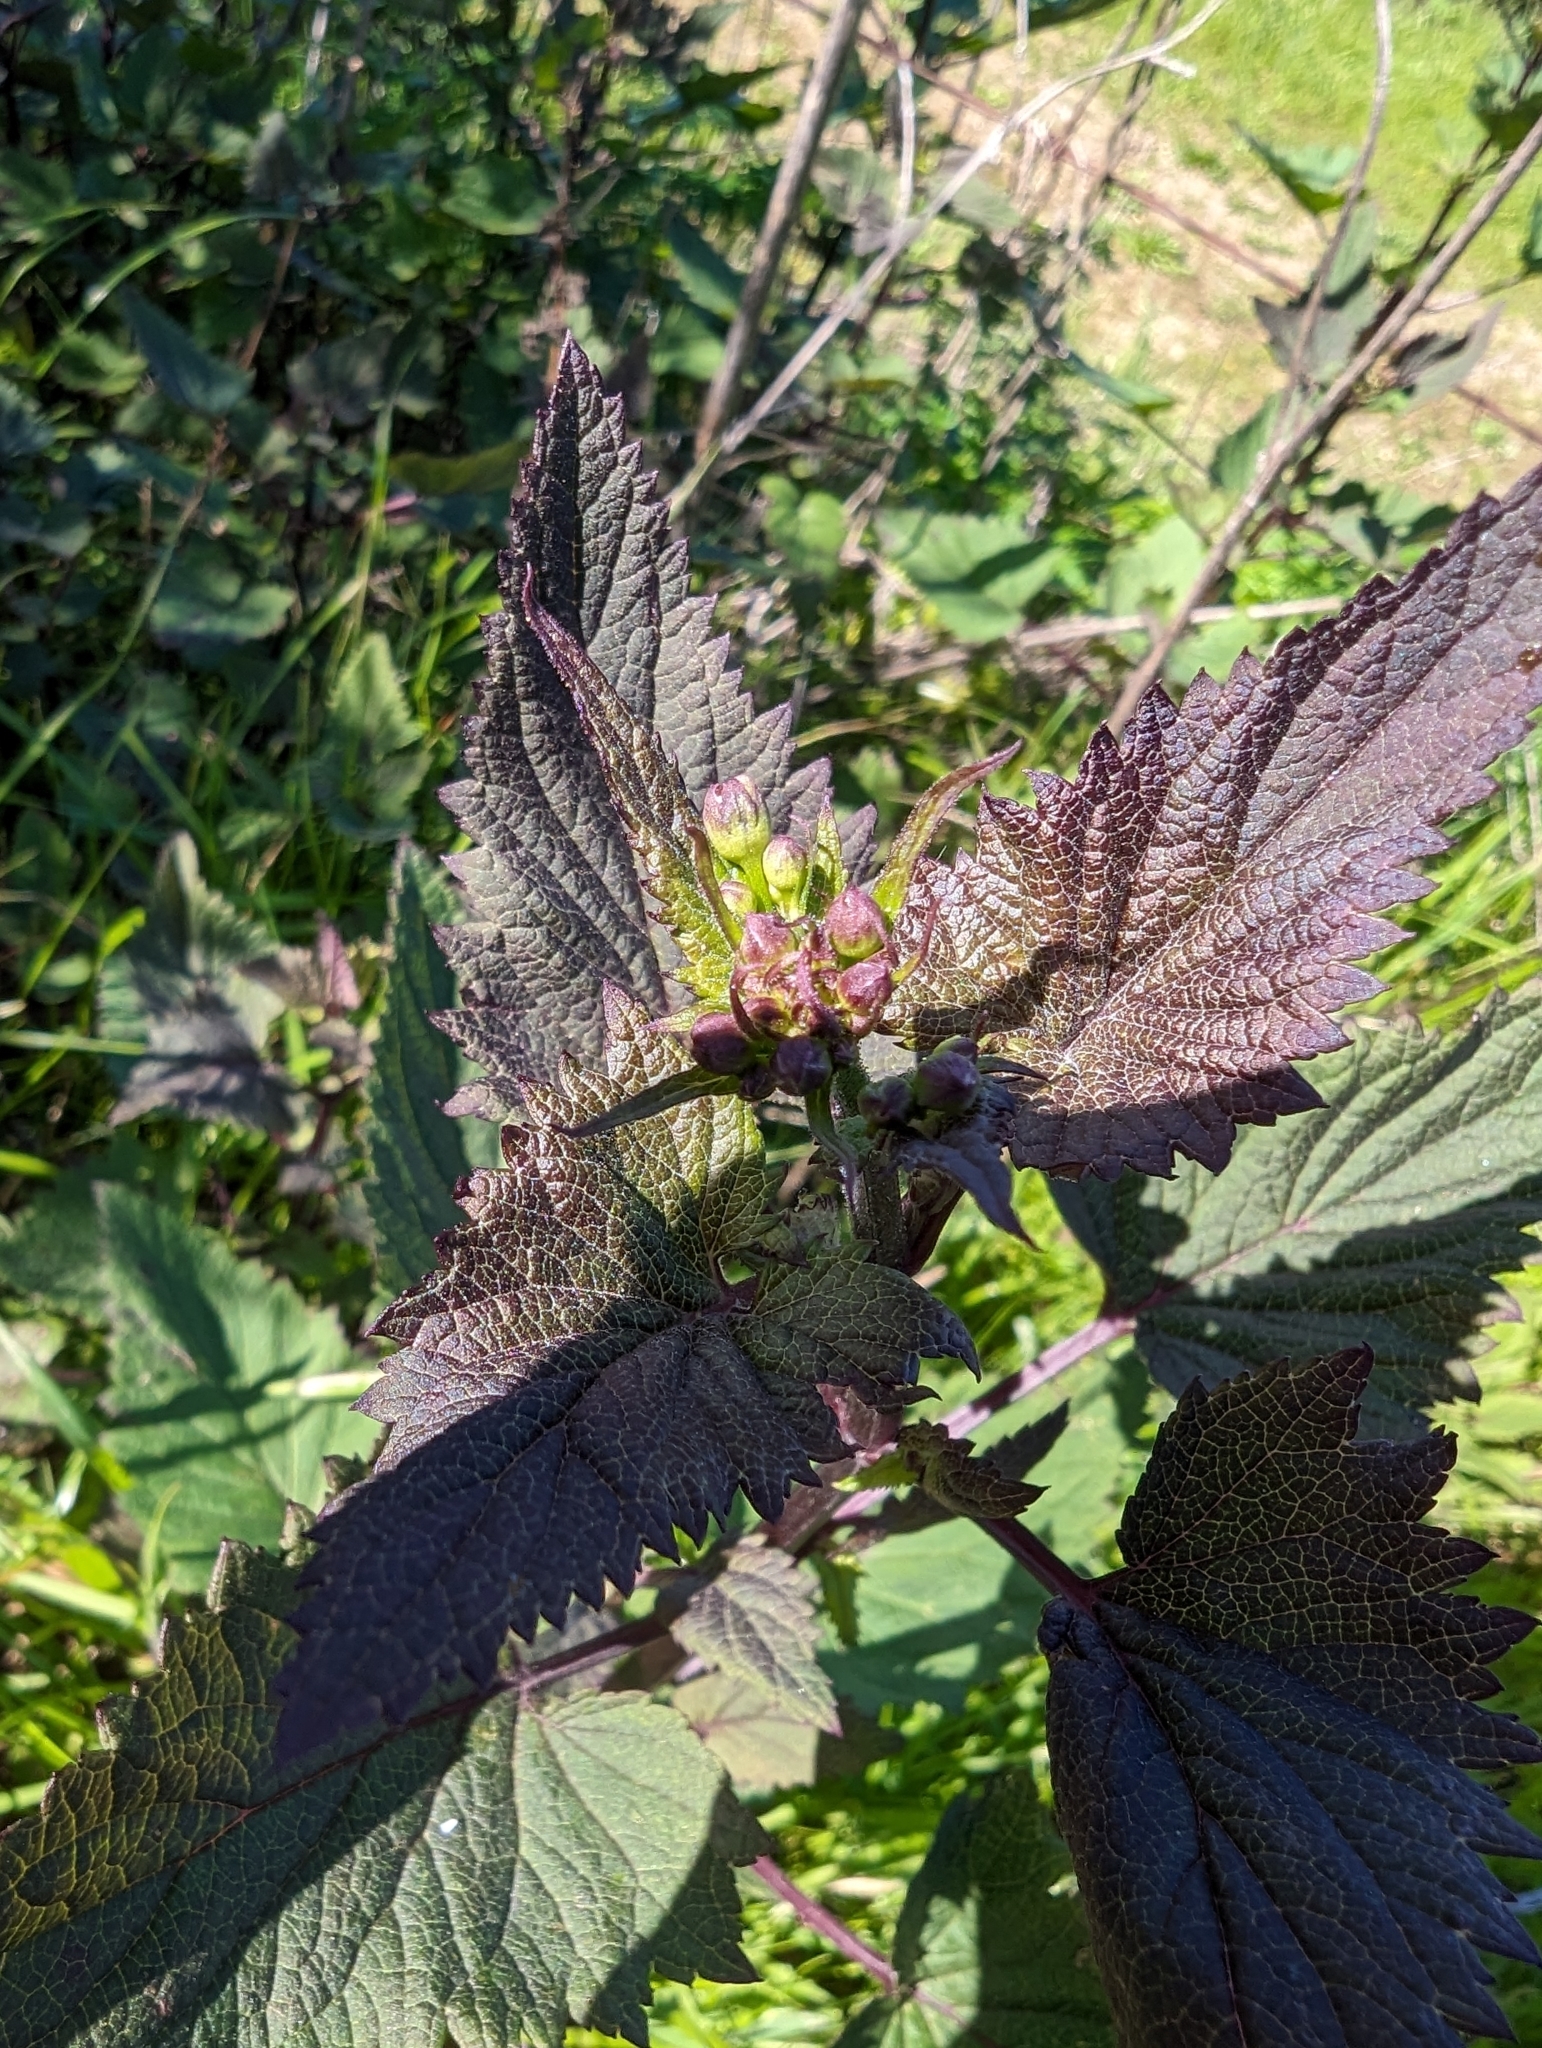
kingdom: Plantae
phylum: Tracheophyta
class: Magnoliopsida
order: Lamiales
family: Scrophulariaceae
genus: Scrophularia
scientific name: Scrophularia californica
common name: California figwort
